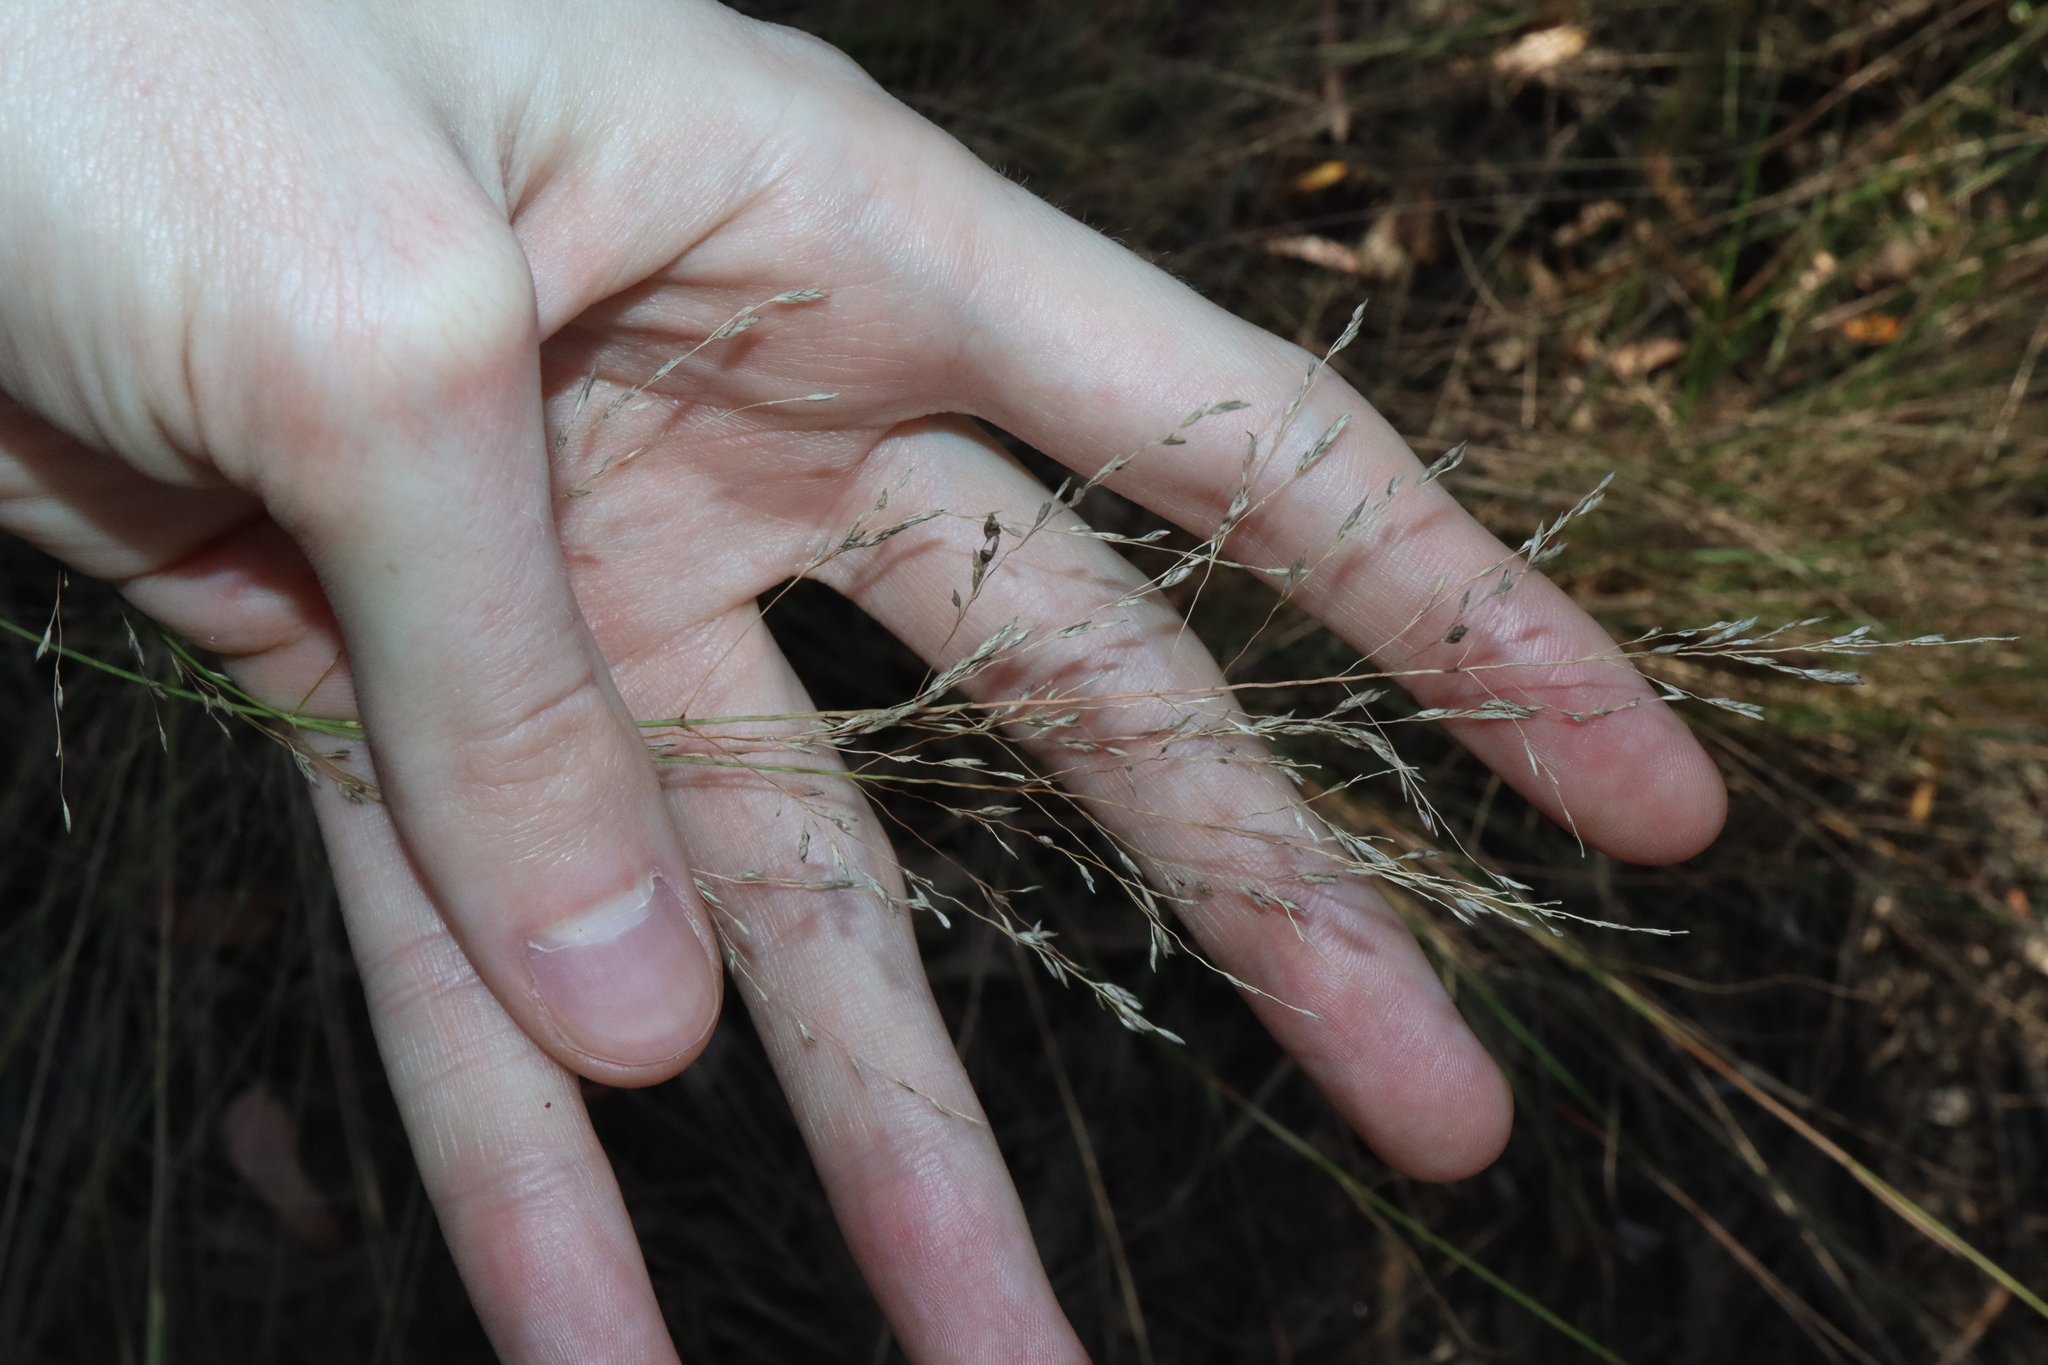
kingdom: Plantae
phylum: Tracheophyta
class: Liliopsida
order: Poales
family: Poaceae
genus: Eragrostis
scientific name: Eragrostis curvula
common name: African love-grass
